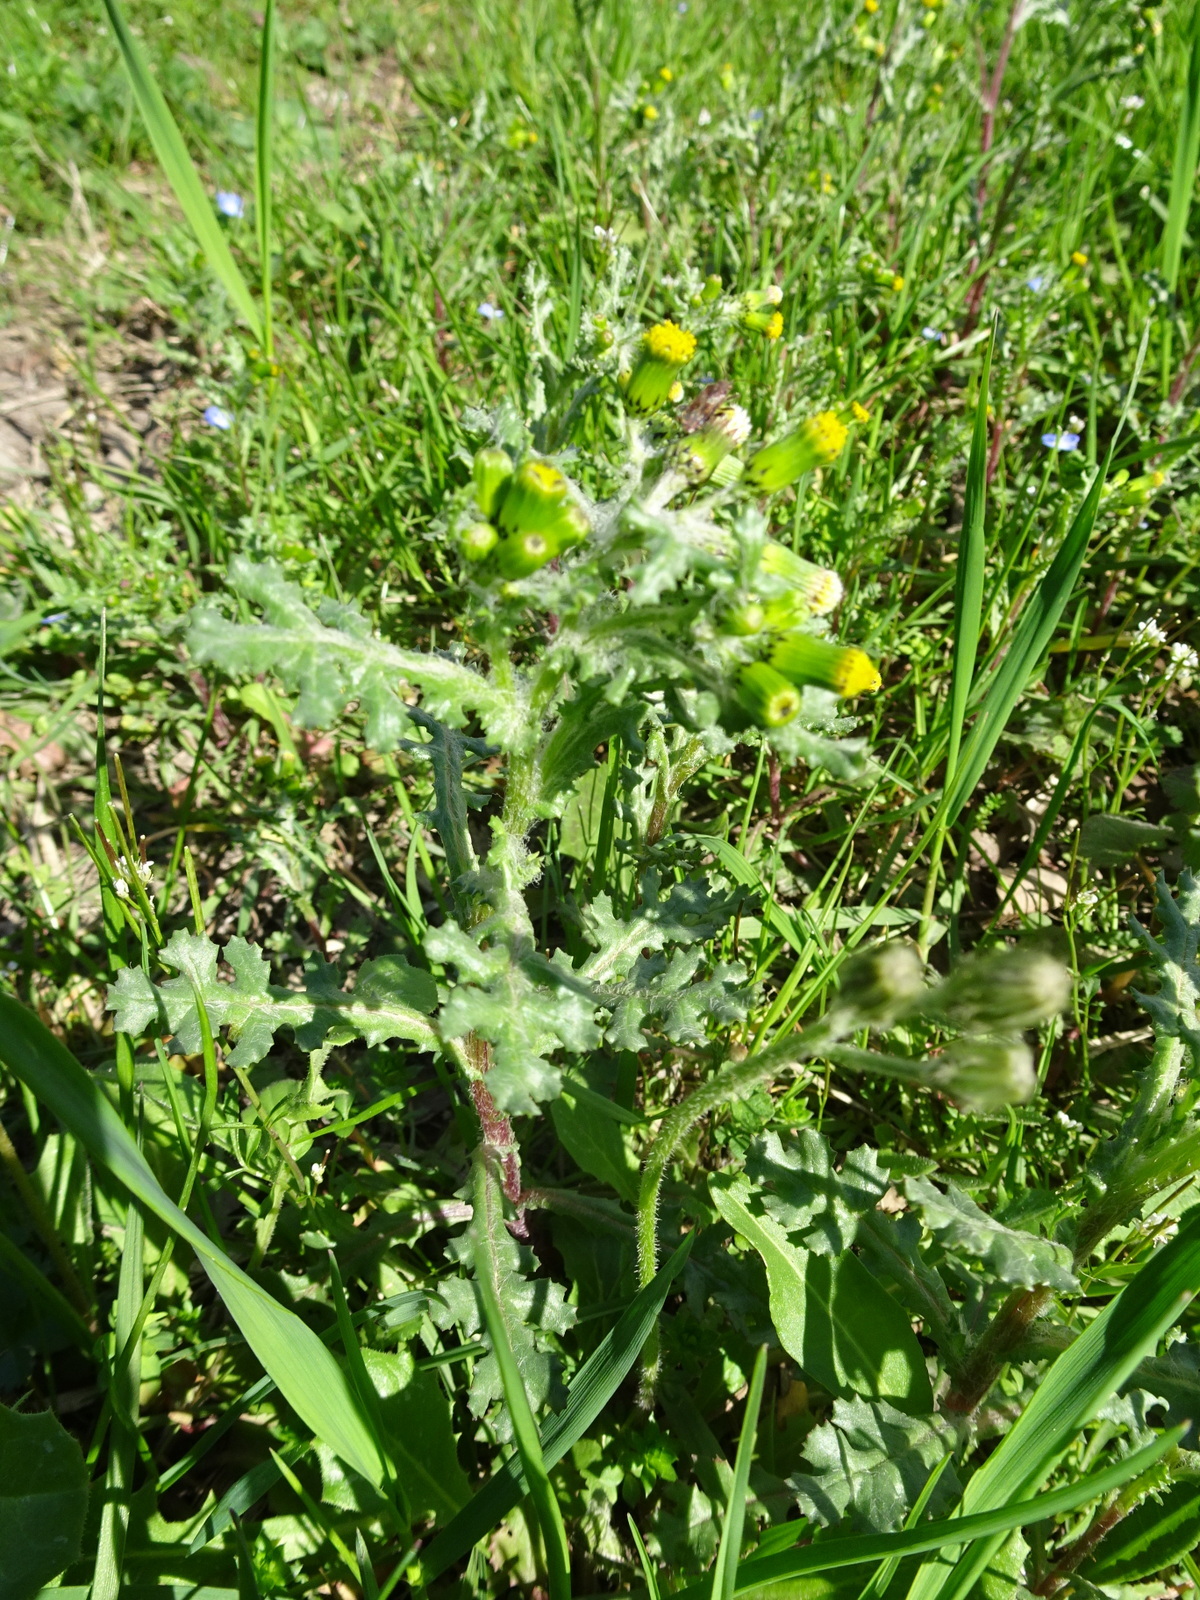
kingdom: Plantae
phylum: Tracheophyta
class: Magnoliopsida
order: Asterales
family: Asteraceae
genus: Senecio
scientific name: Senecio vulgaris
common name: Old-man-in-the-spring
